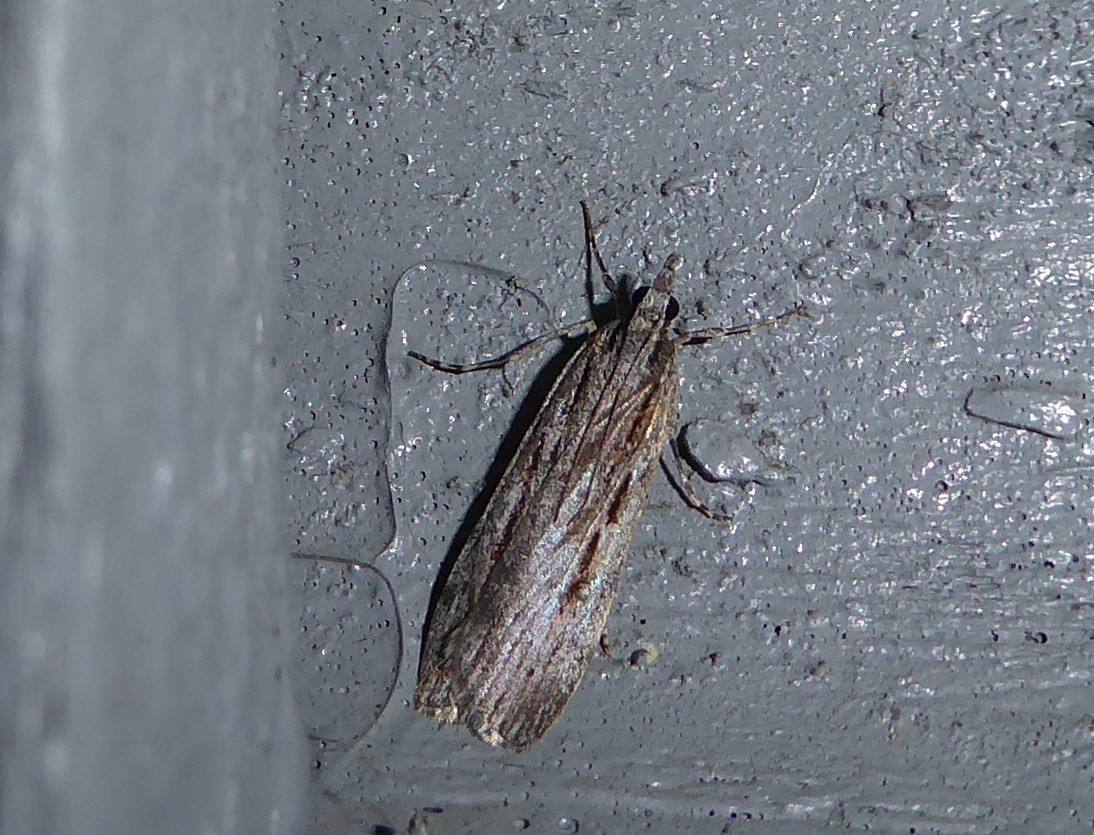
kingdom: Animalia
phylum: Arthropoda
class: Insecta
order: Lepidoptera
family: Crambidae
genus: Scoparia
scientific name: Scoparia indistinctalis
